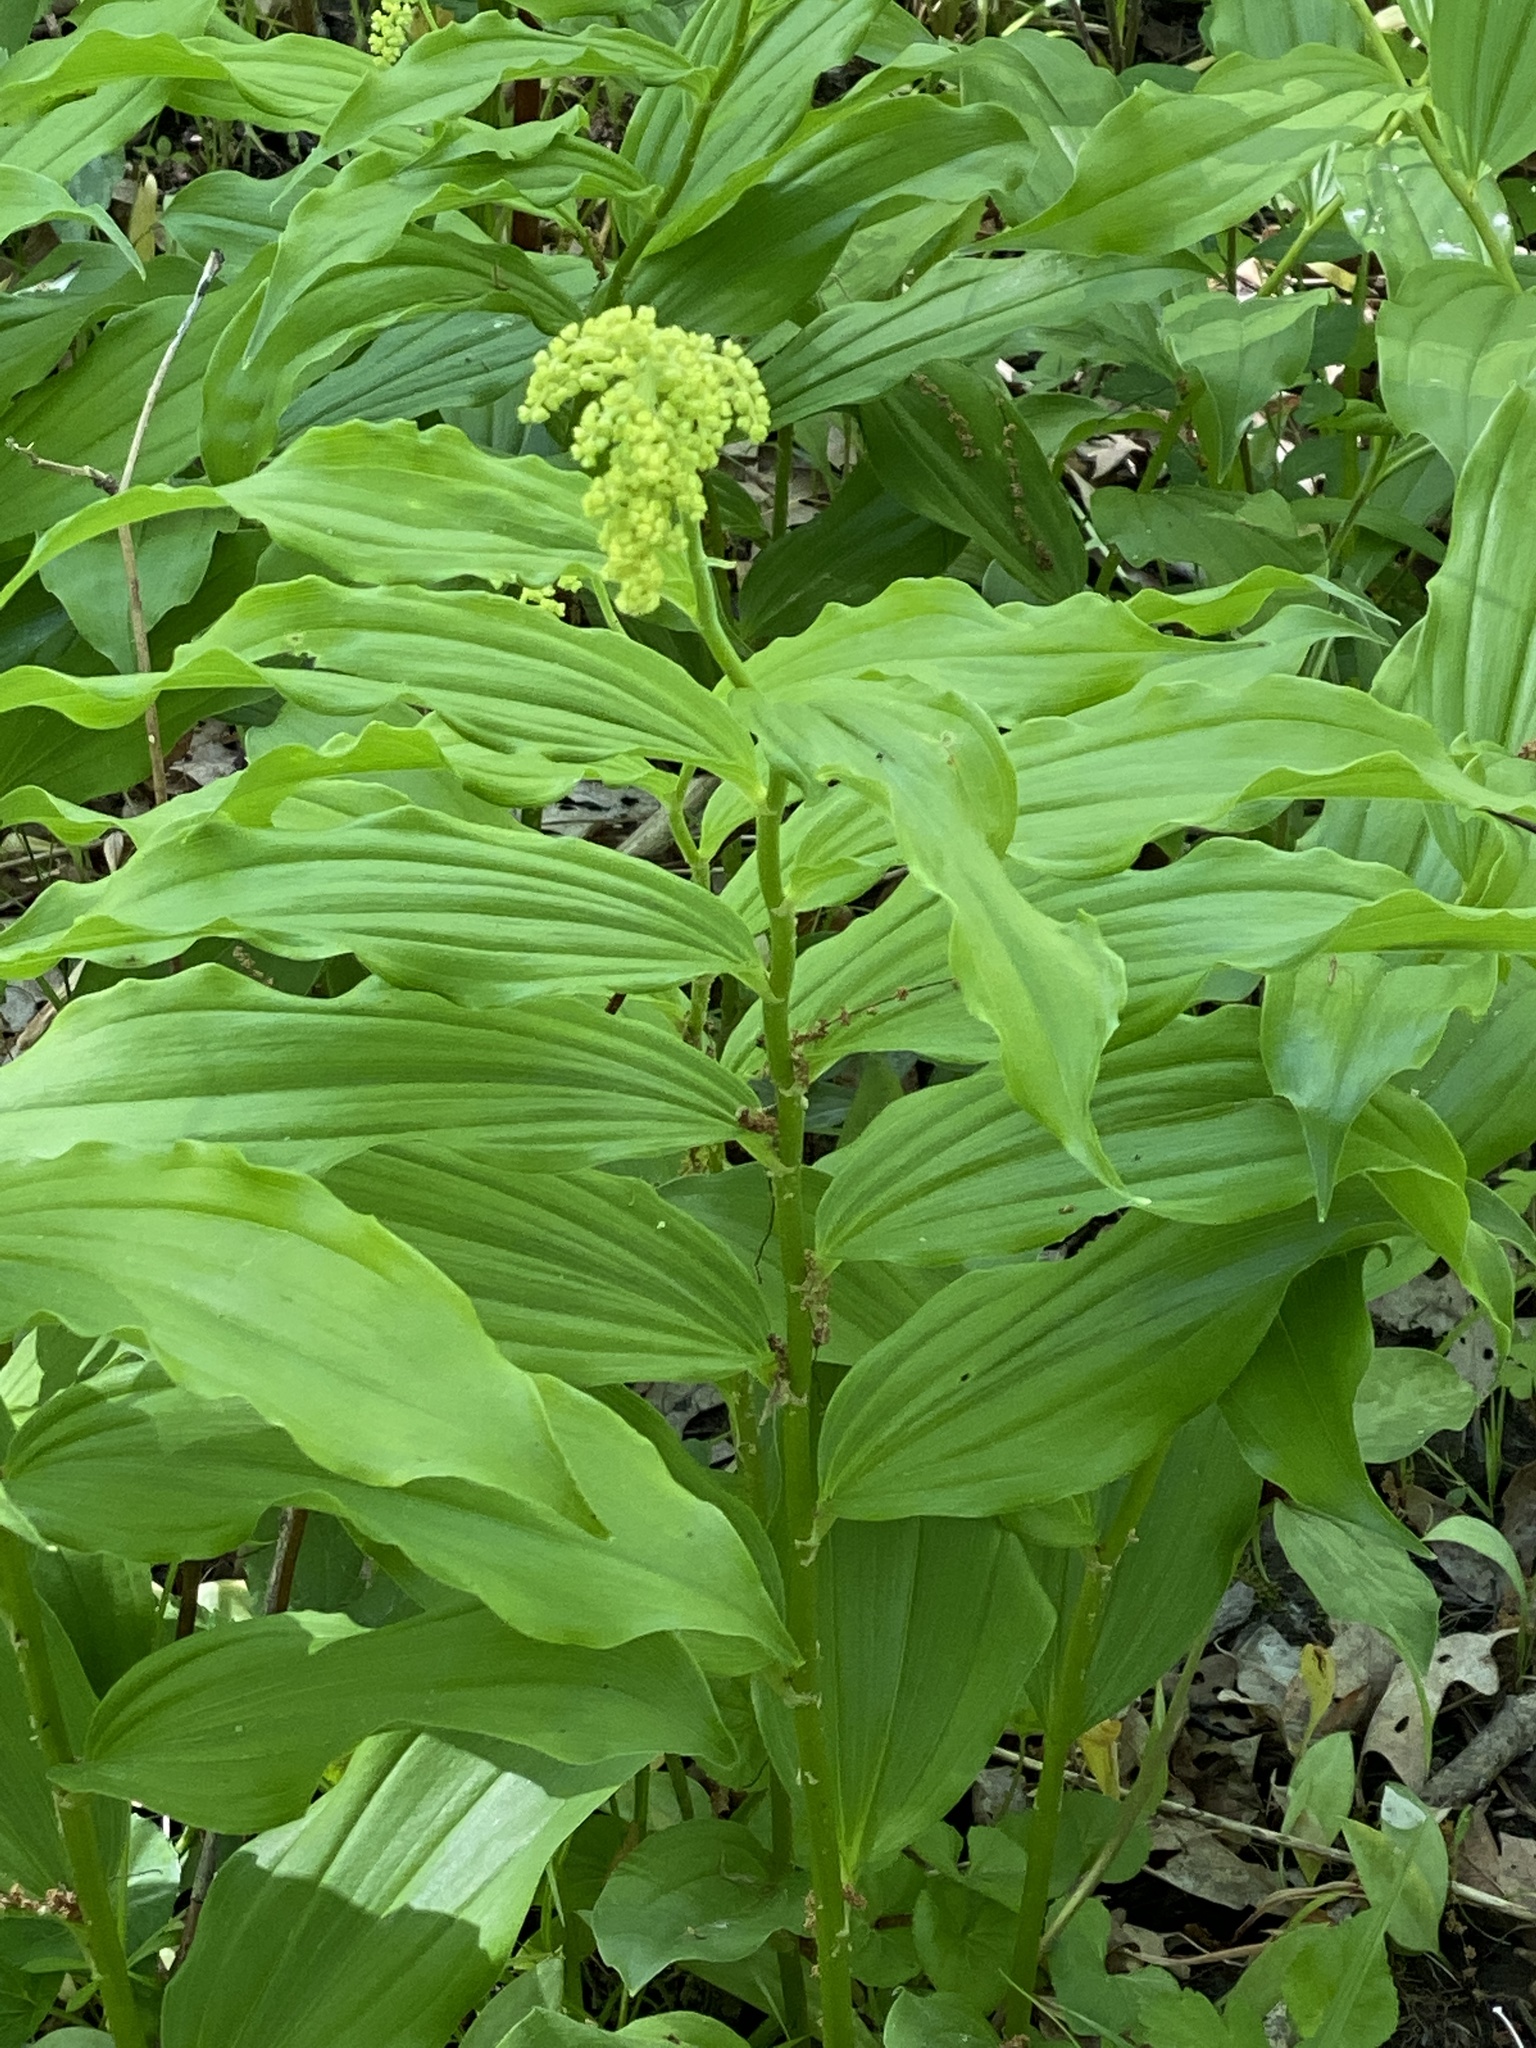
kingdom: Plantae
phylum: Tracheophyta
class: Liliopsida
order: Asparagales
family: Asparagaceae
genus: Maianthemum
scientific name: Maianthemum racemosum
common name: False spikenard
